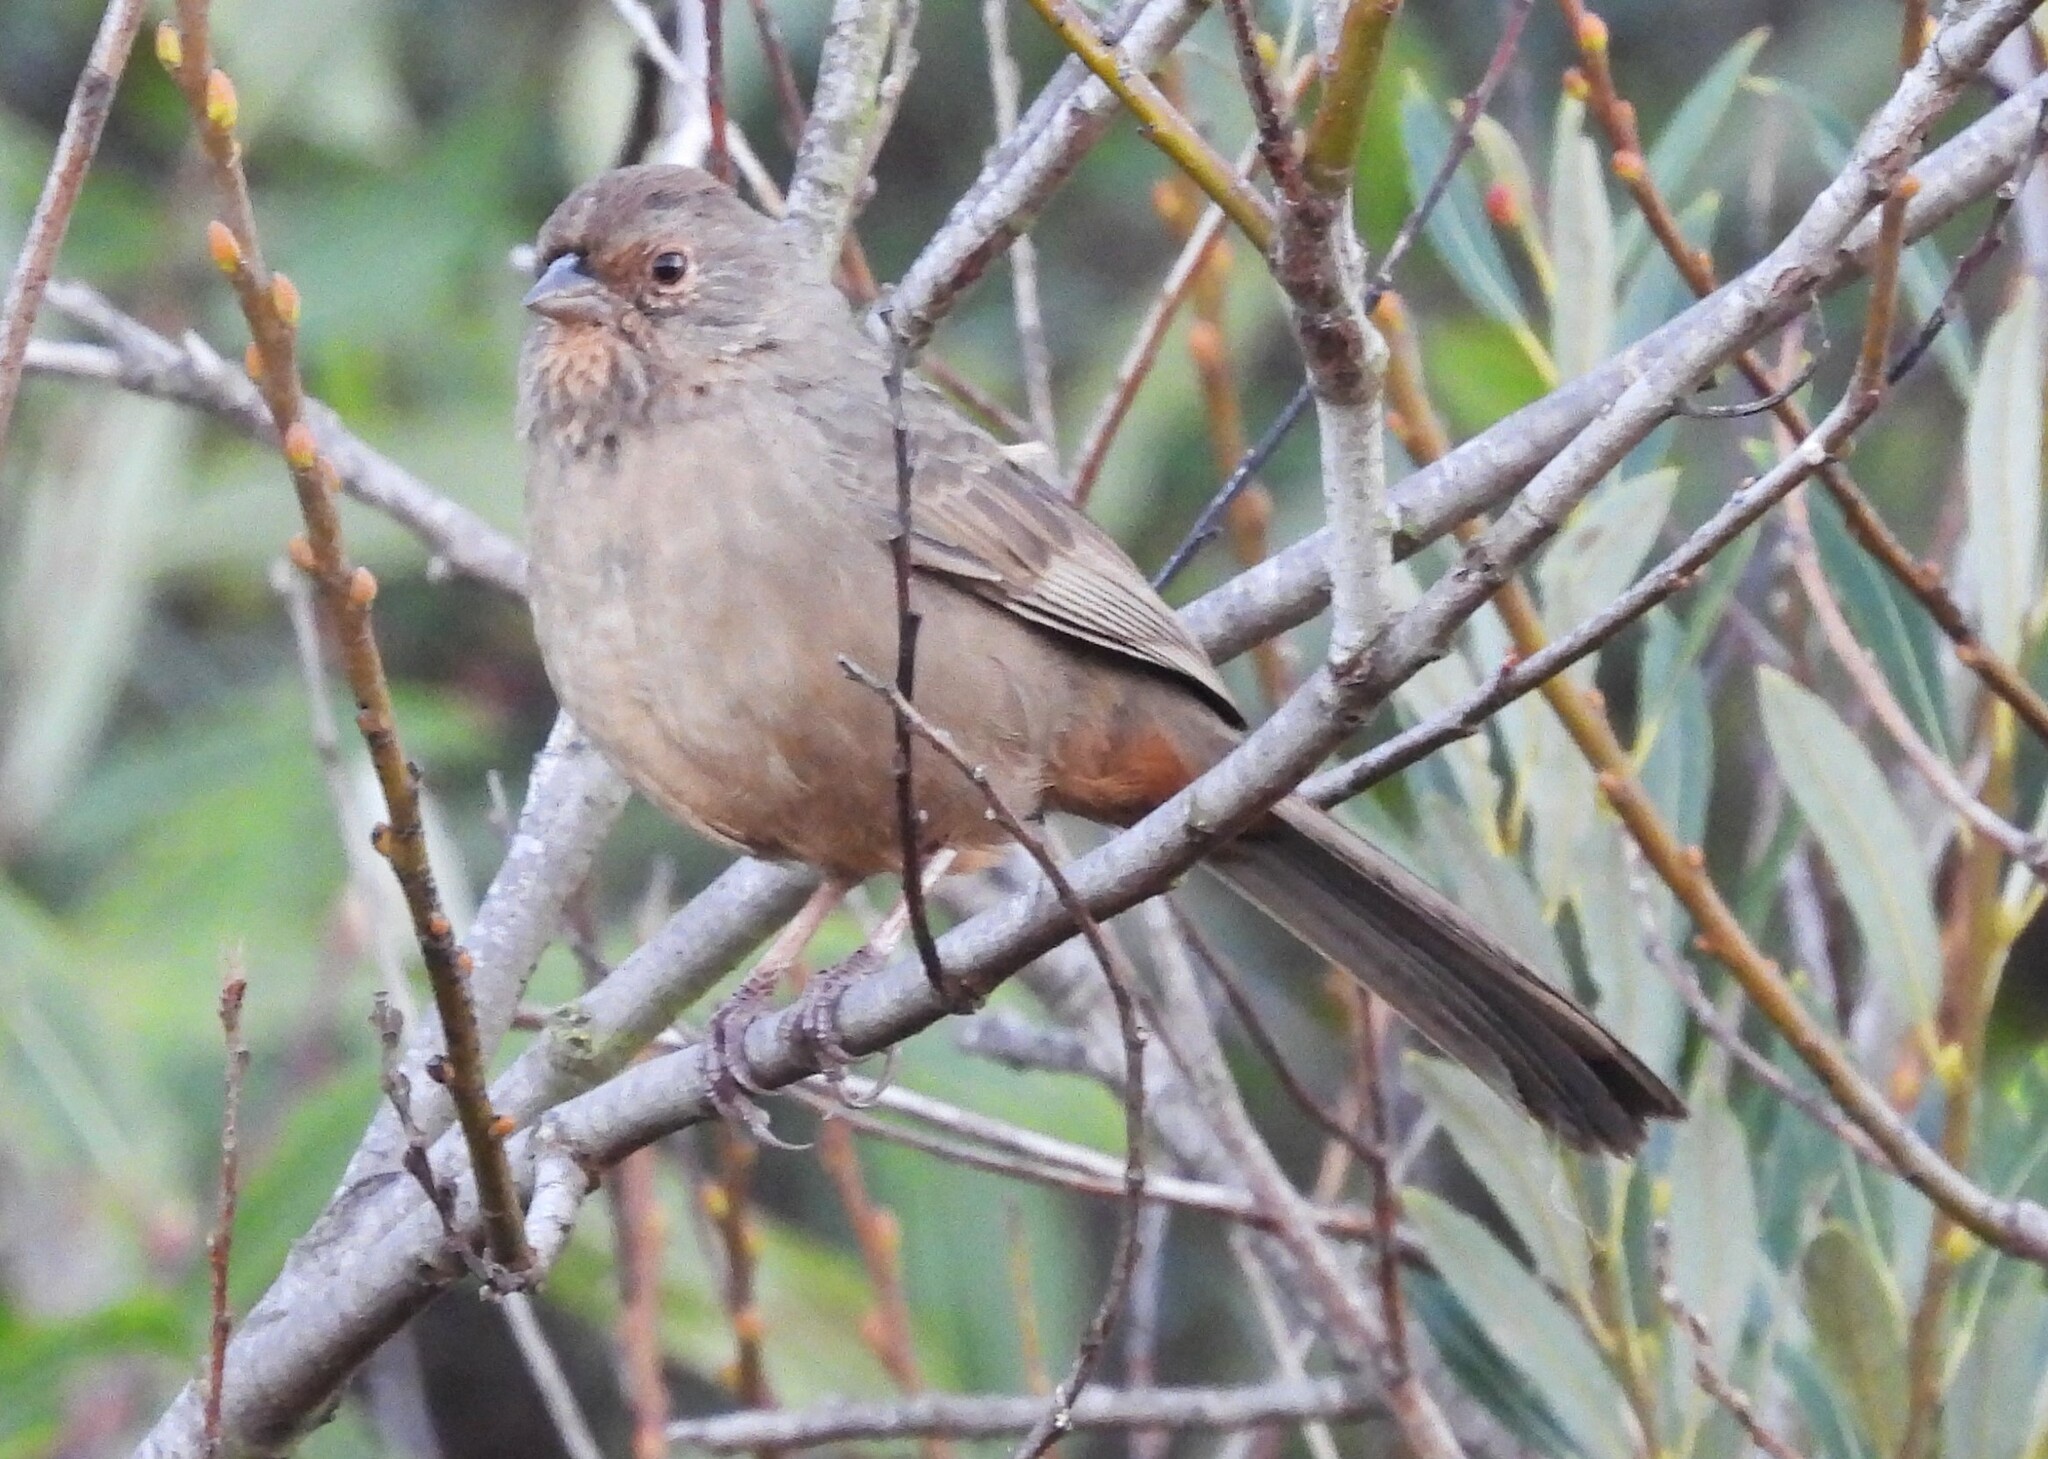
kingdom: Animalia
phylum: Chordata
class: Aves
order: Passeriformes
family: Passerellidae
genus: Melozone
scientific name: Melozone crissalis
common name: California towhee
